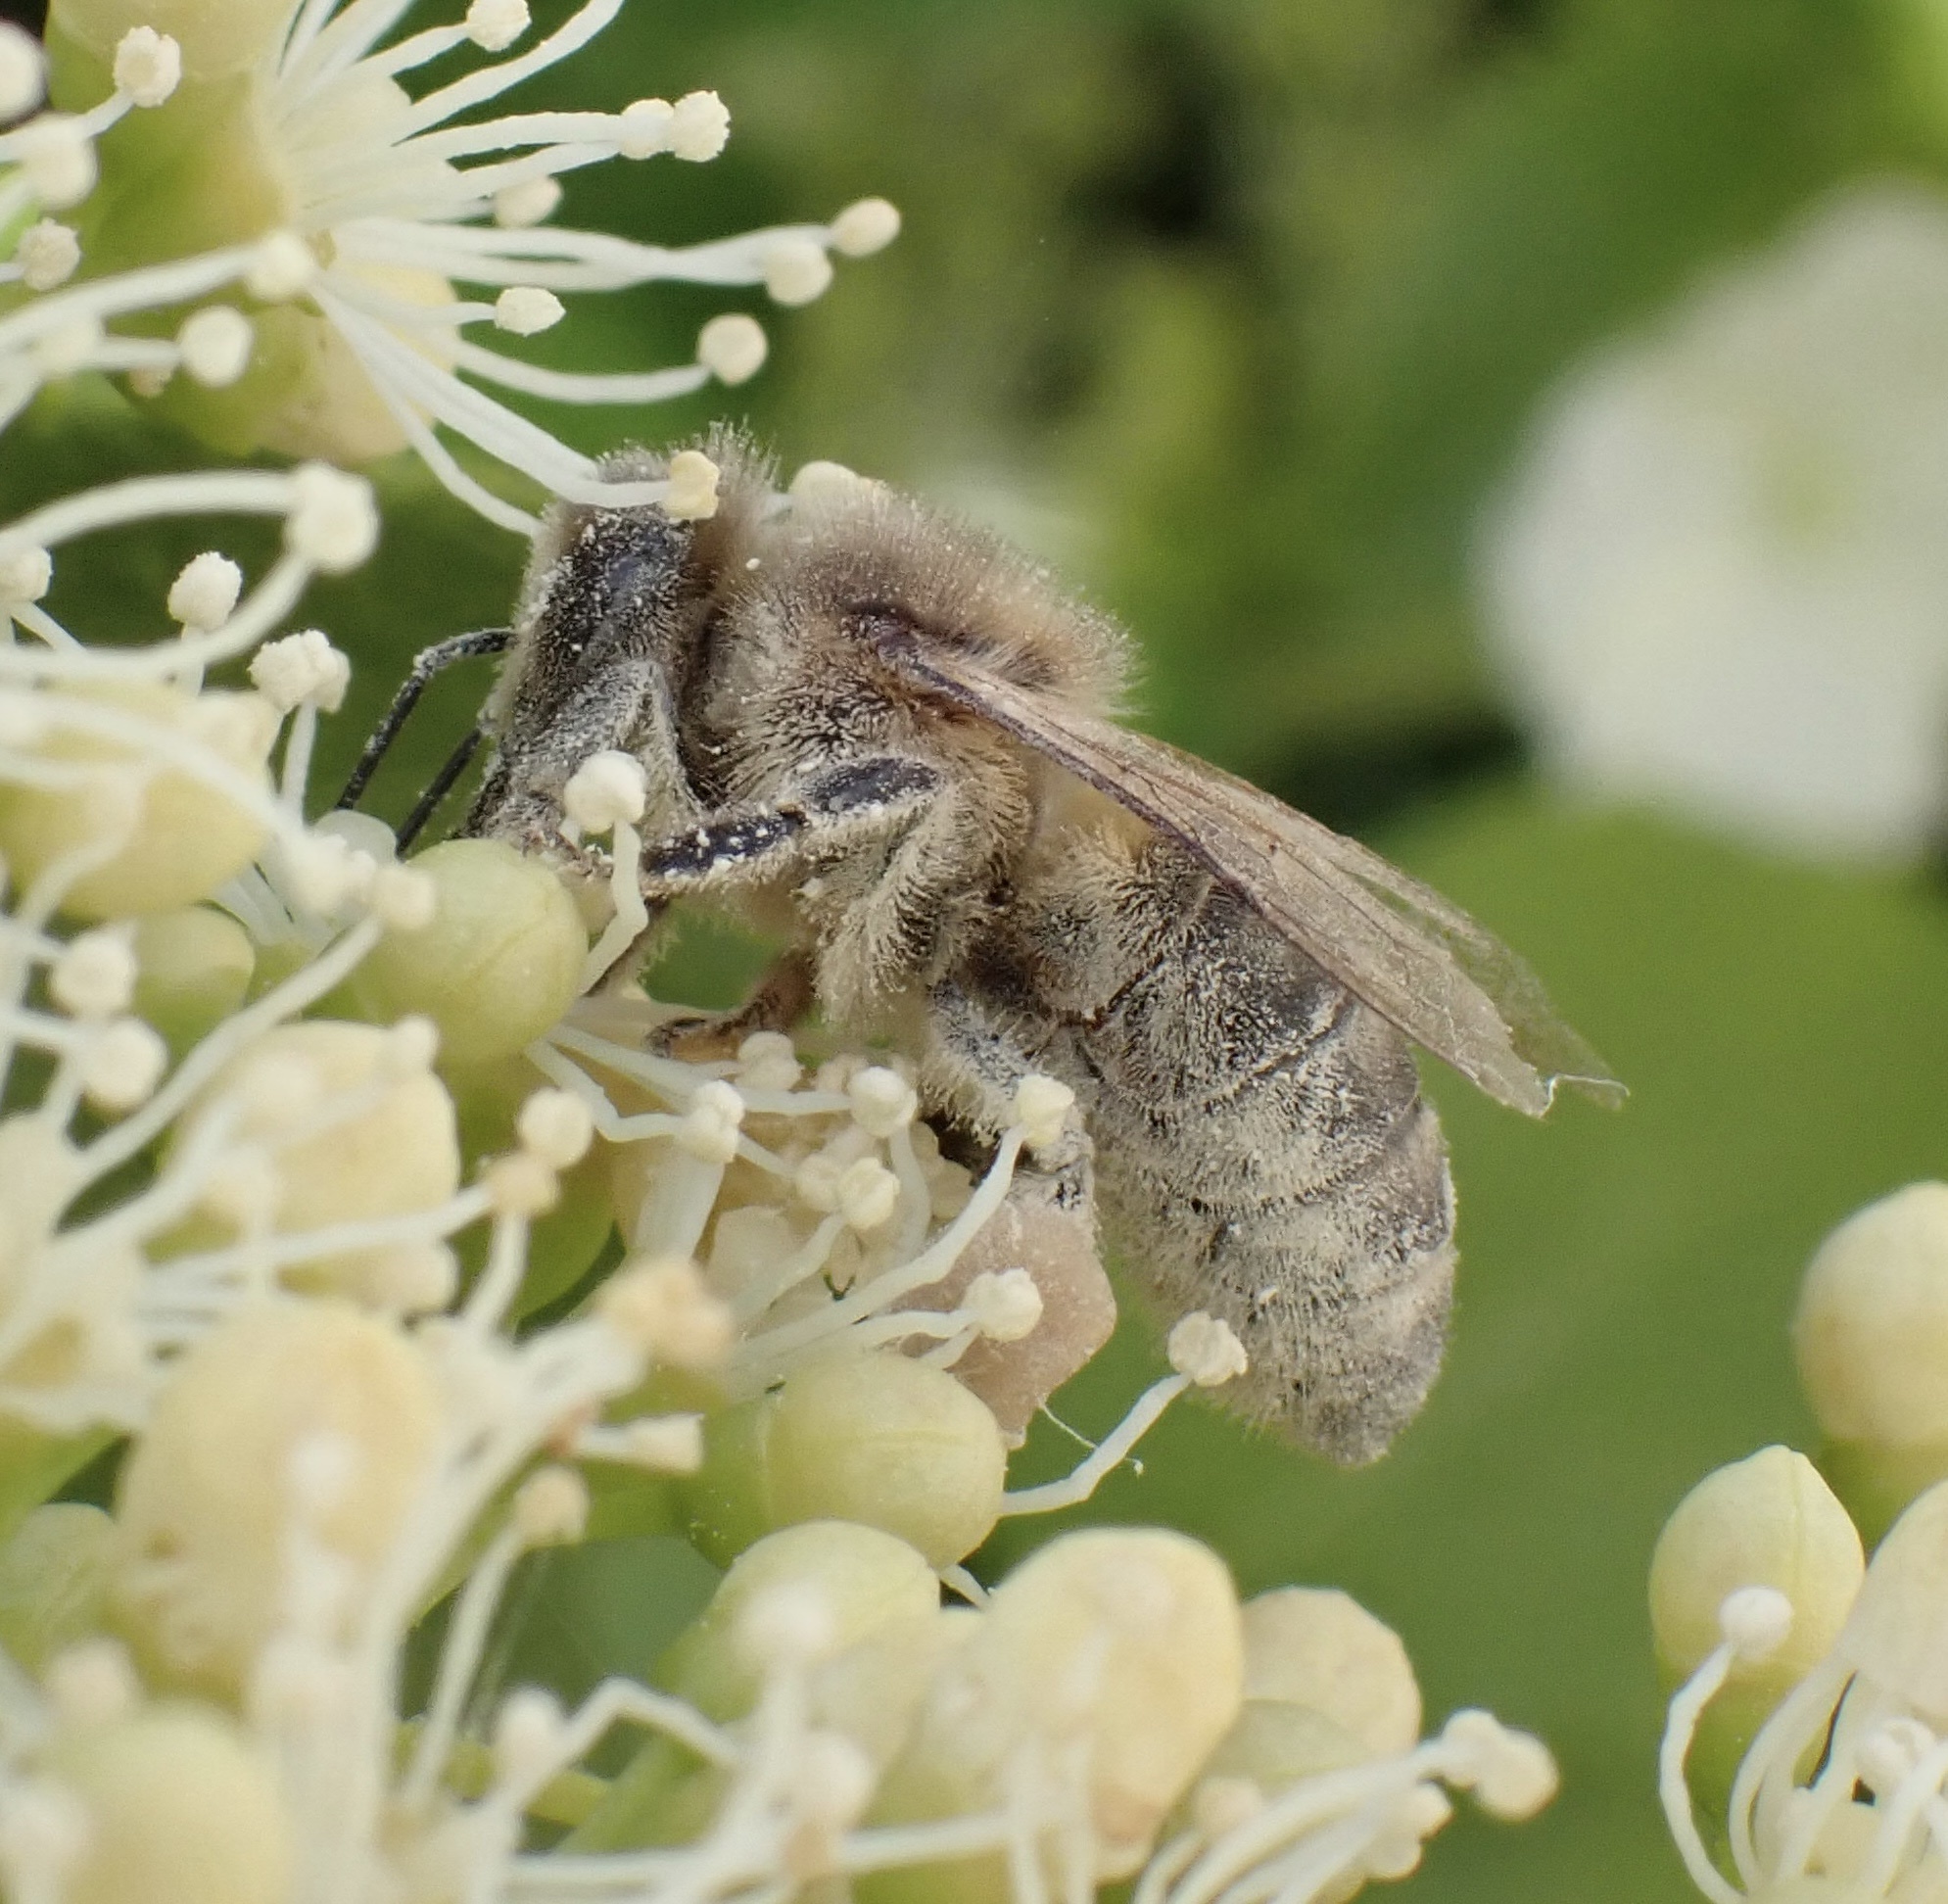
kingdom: Animalia
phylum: Arthropoda
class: Insecta
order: Hymenoptera
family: Apidae
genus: Apis
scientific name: Apis mellifera
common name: Honey bee
